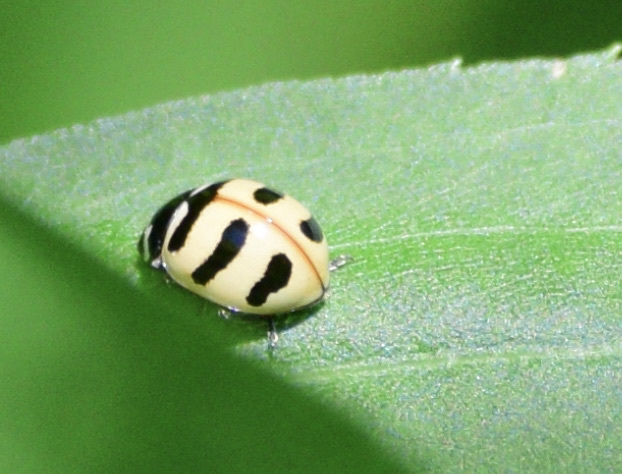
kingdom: Animalia
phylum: Arthropoda
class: Insecta
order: Coleoptera
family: Coccinellidae
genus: Coccinella
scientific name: Coccinella trifasciata
